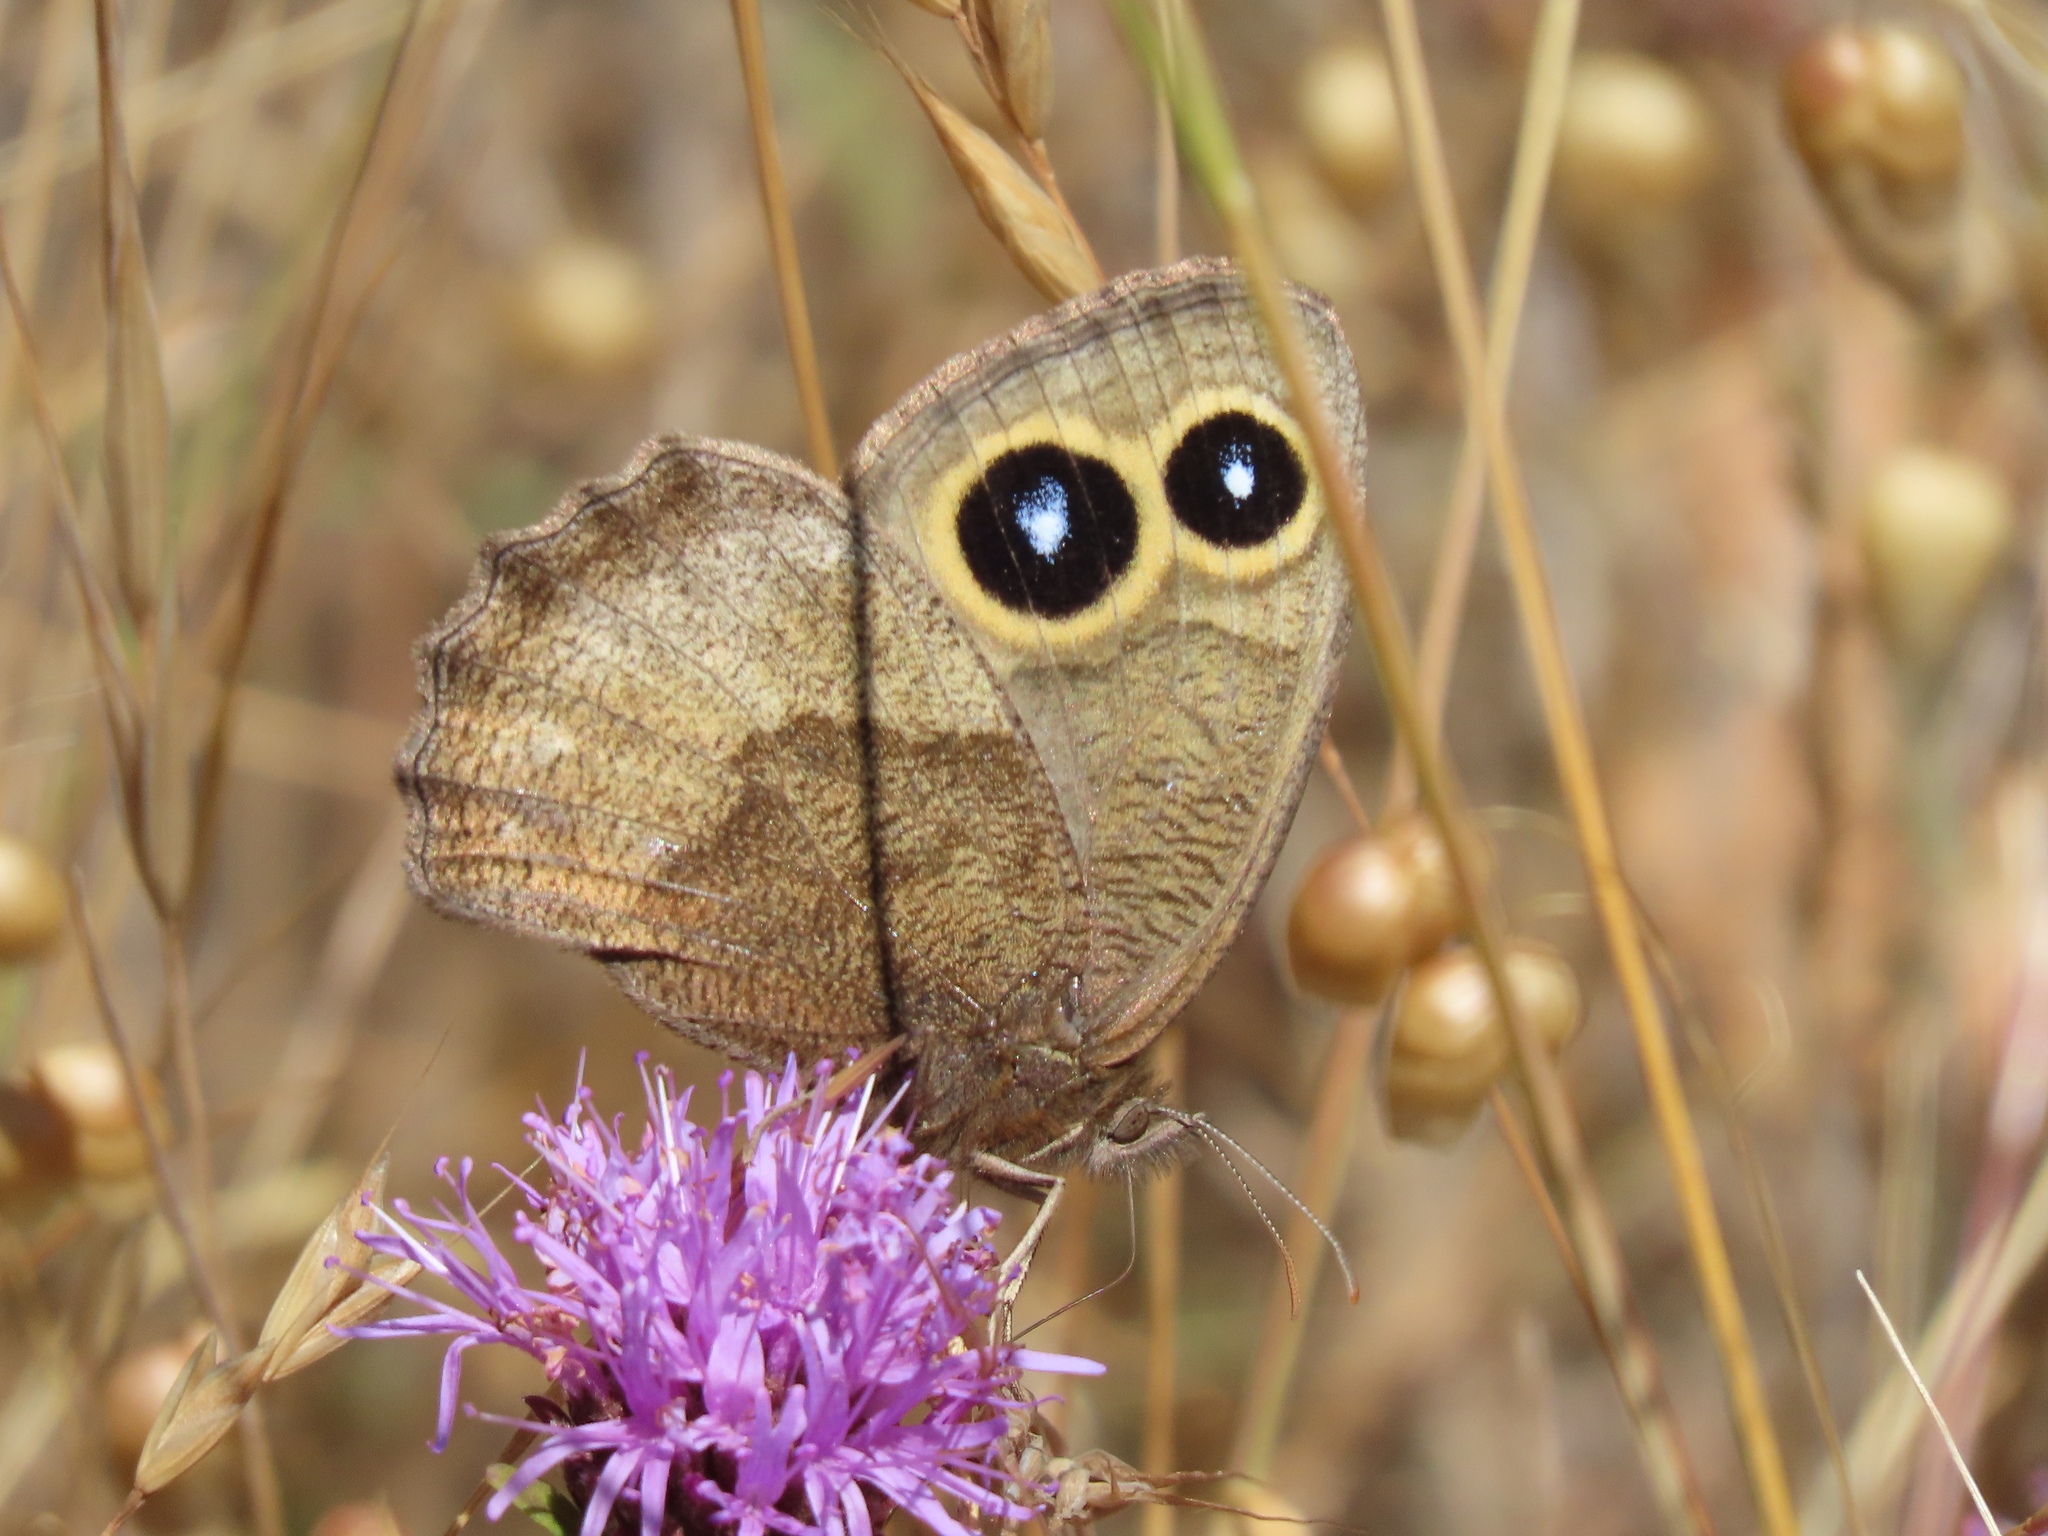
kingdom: Animalia
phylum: Arthropoda
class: Insecta
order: Lepidoptera
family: Nymphalidae
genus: Cercyonis
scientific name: Cercyonis pegala
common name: Common wood-nymph
